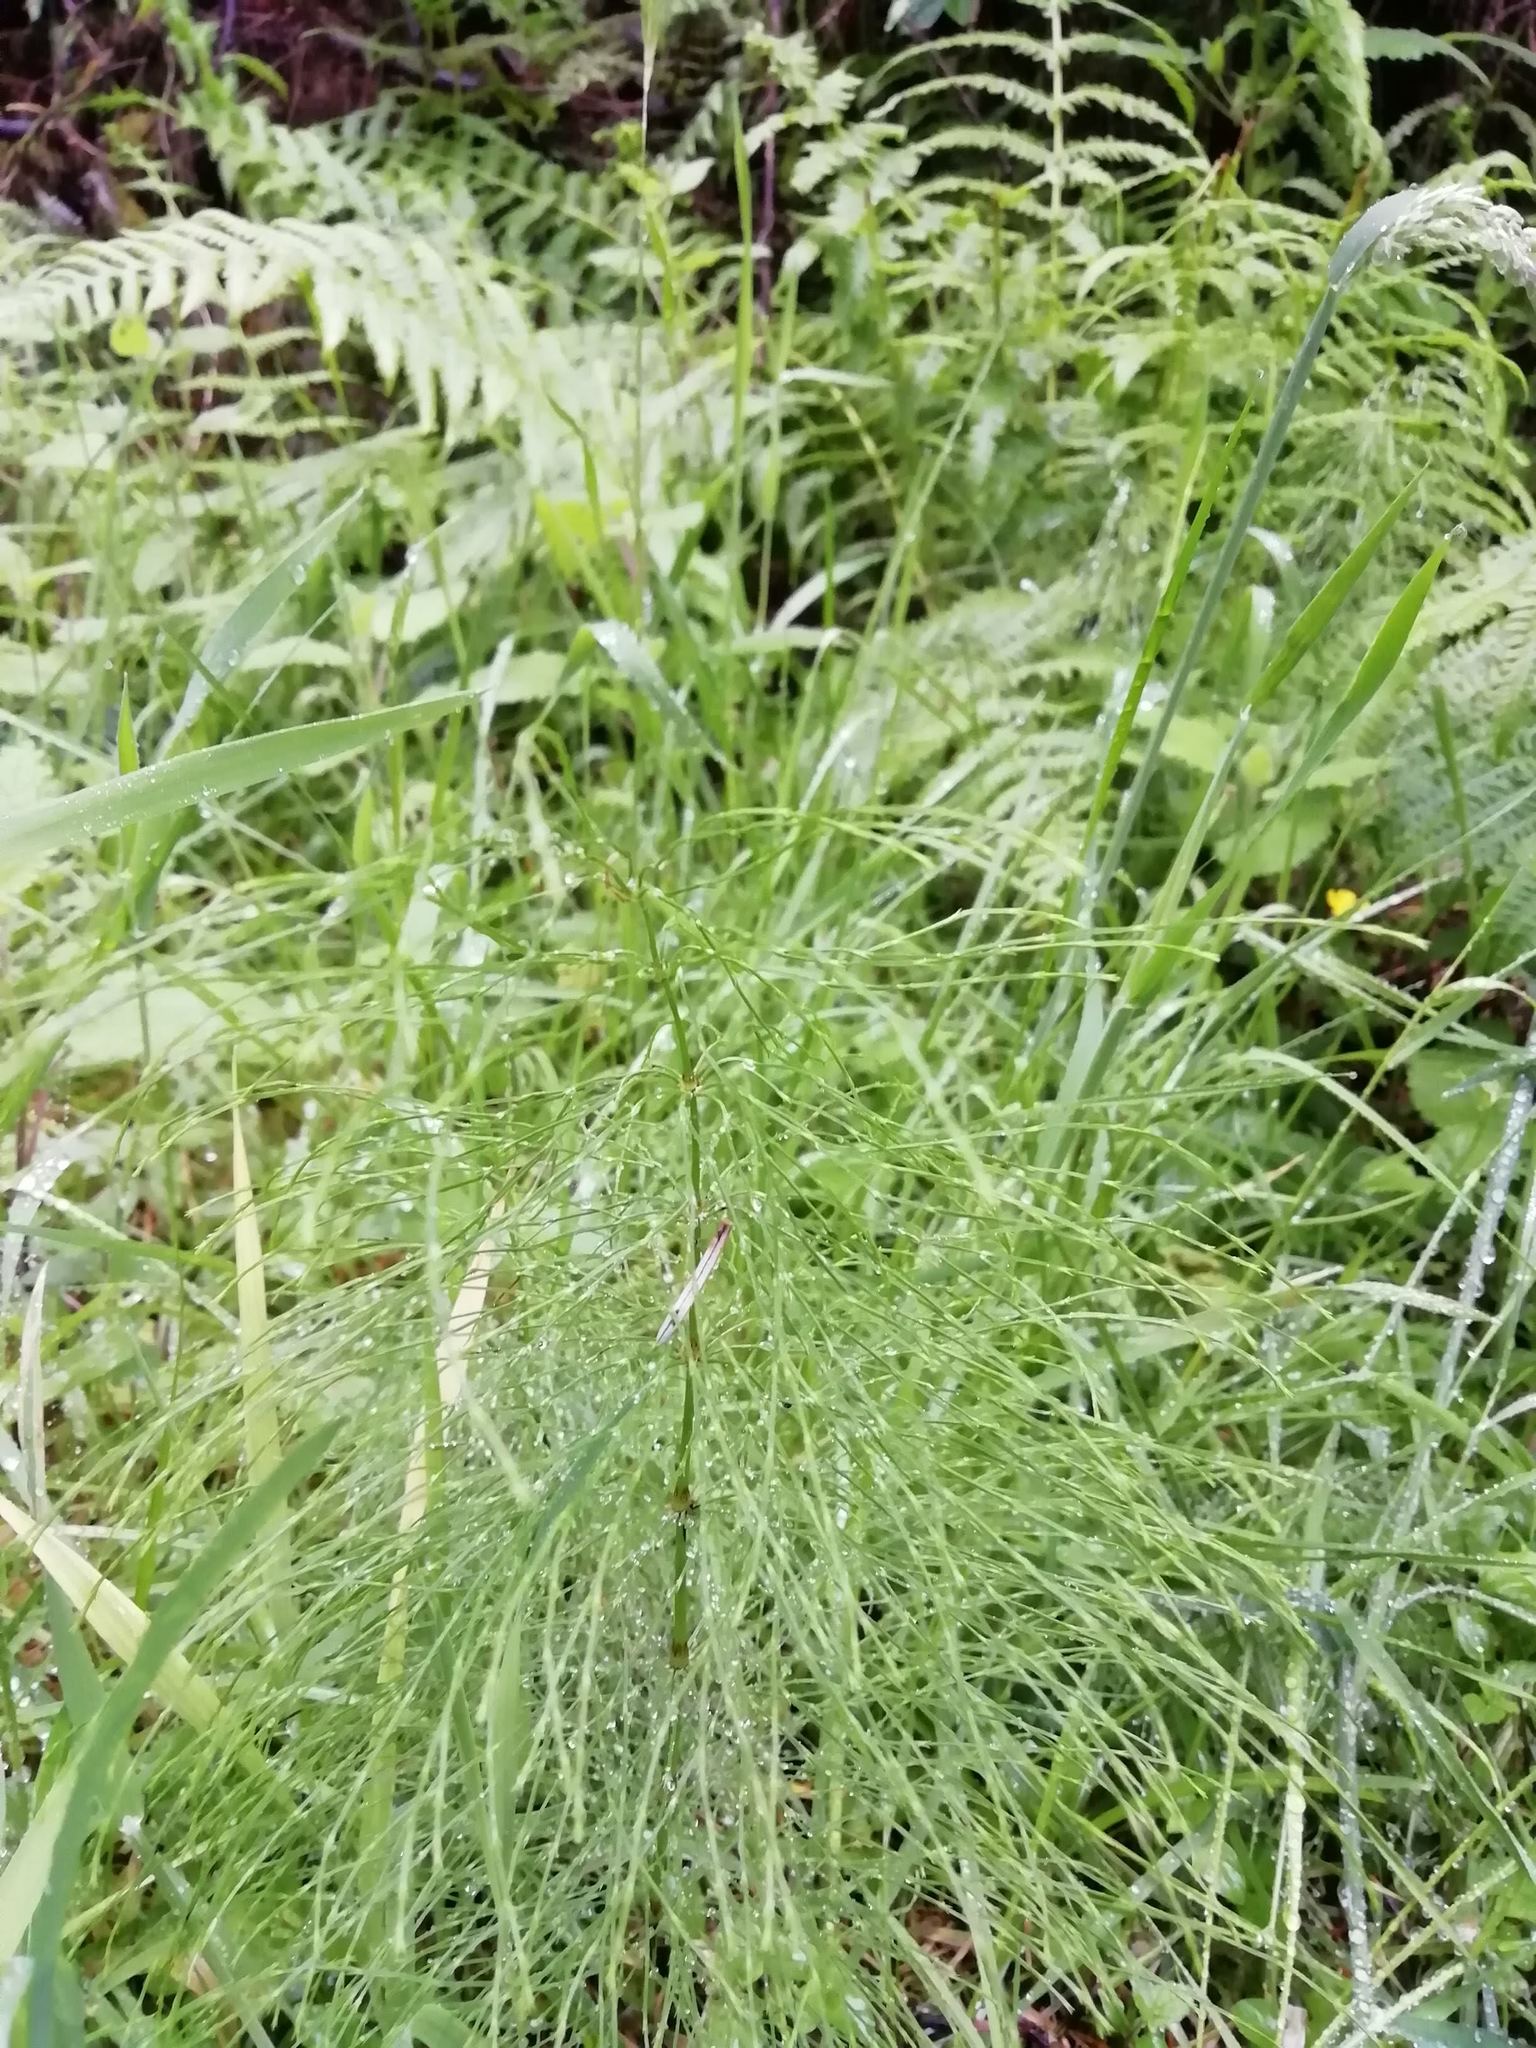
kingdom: Plantae
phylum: Tracheophyta
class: Polypodiopsida
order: Equisetales
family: Equisetaceae
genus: Equisetum
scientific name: Equisetum sylvaticum
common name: Wood horsetail
